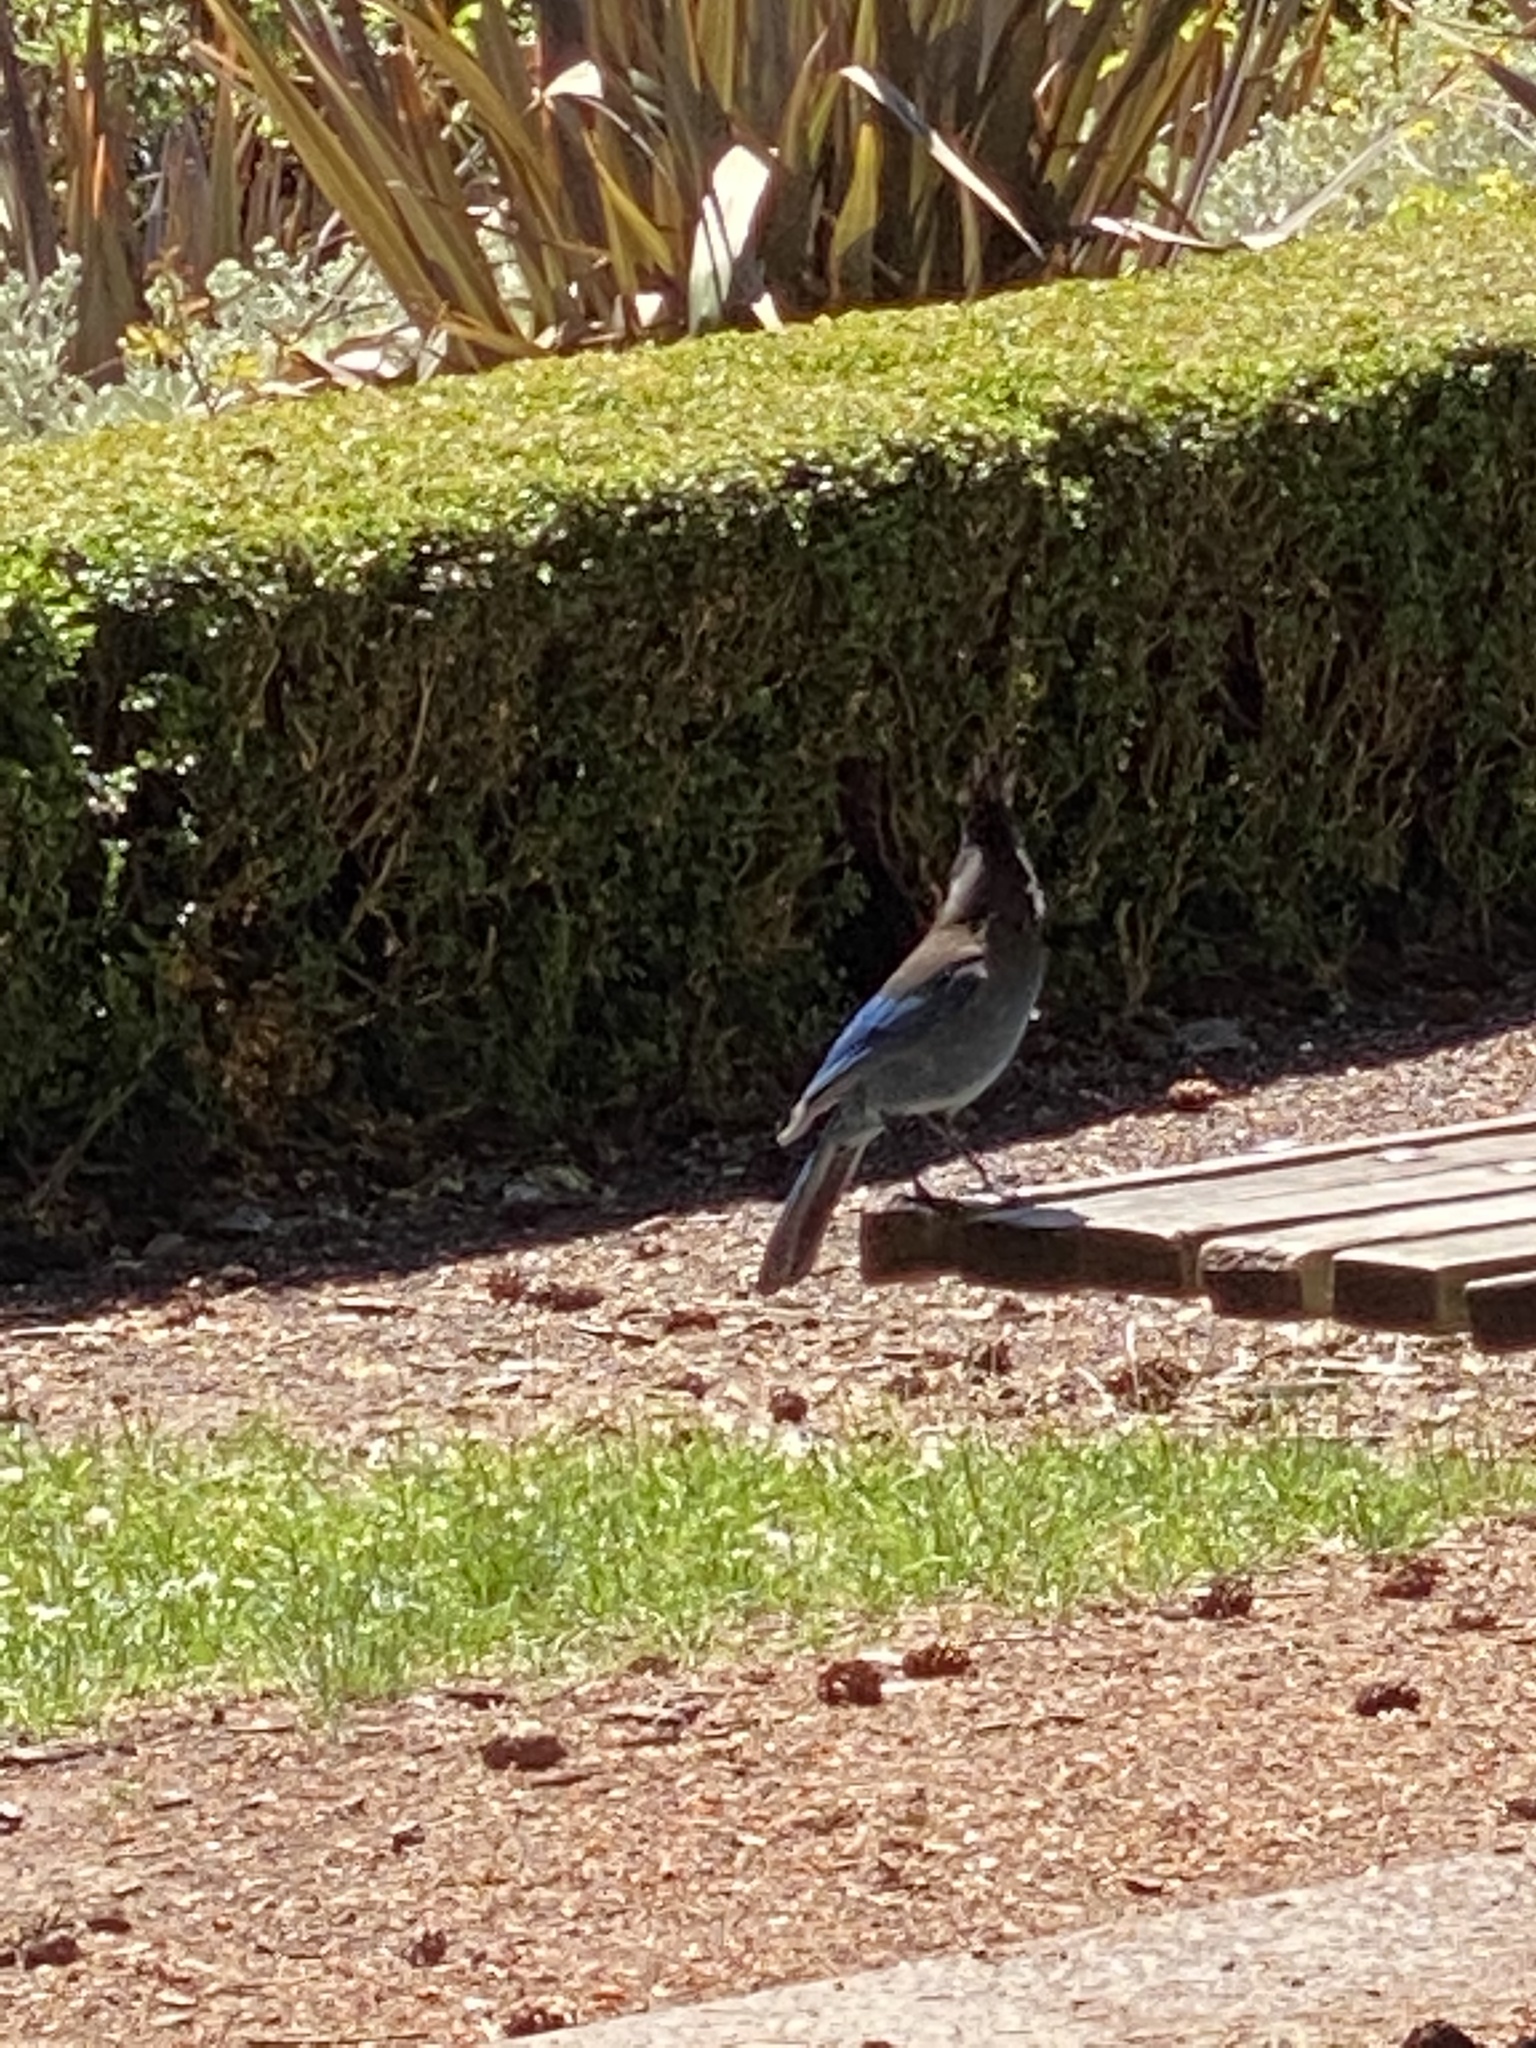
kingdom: Animalia
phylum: Chordata
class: Aves
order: Passeriformes
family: Corvidae
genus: Cyanocitta
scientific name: Cyanocitta stelleri
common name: Steller's jay
